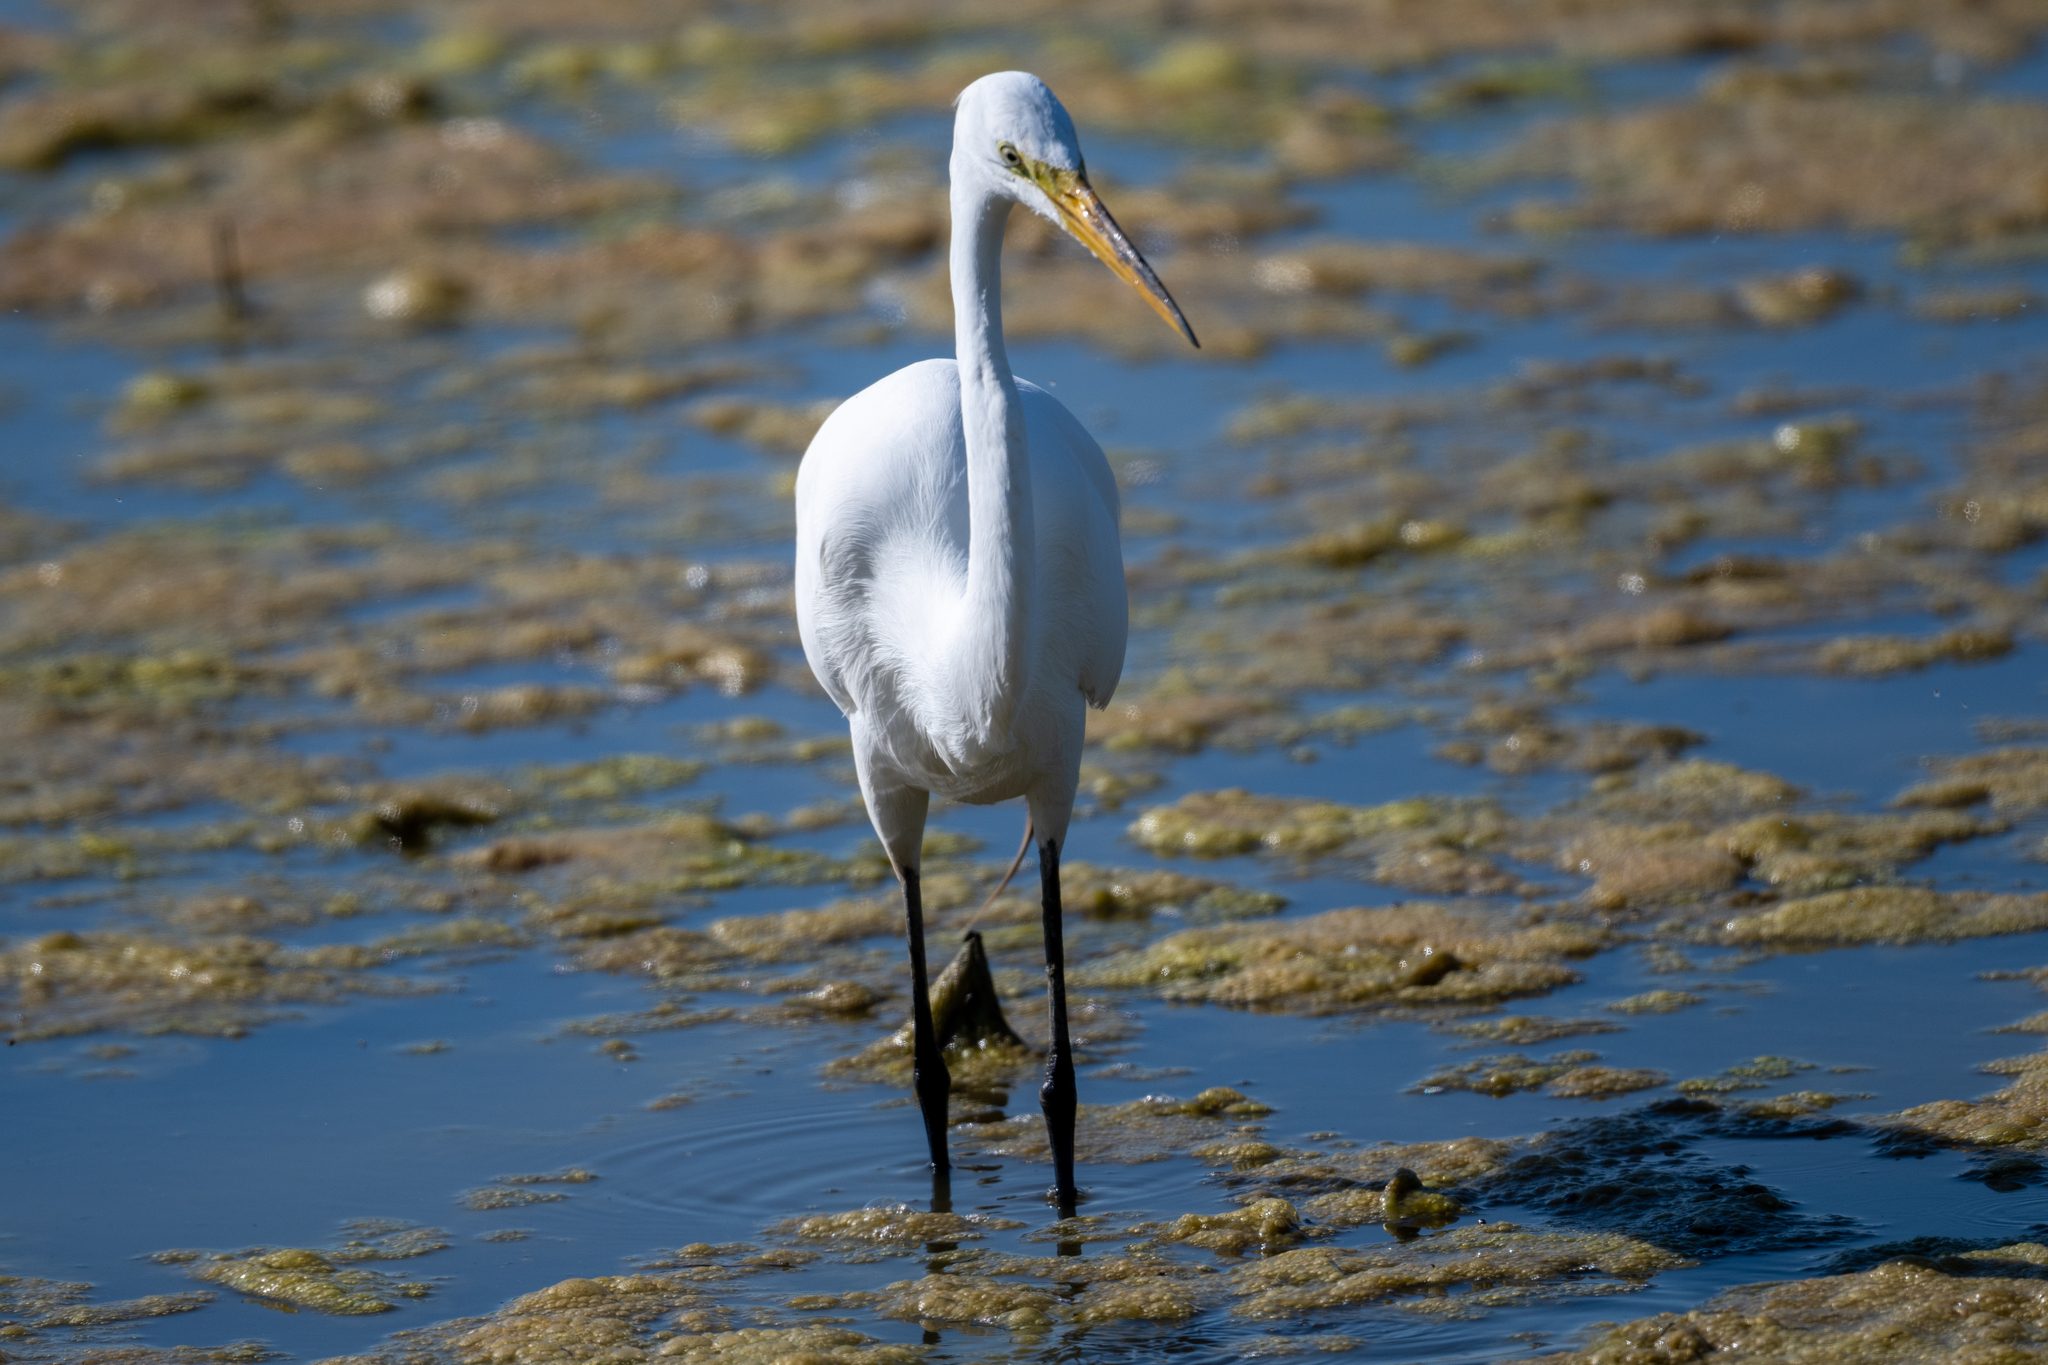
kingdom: Animalia
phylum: Chordata
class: Aves
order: Pelecaniformes
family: Ardeidae
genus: Ardea
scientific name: Ardea alba
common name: Great egret
